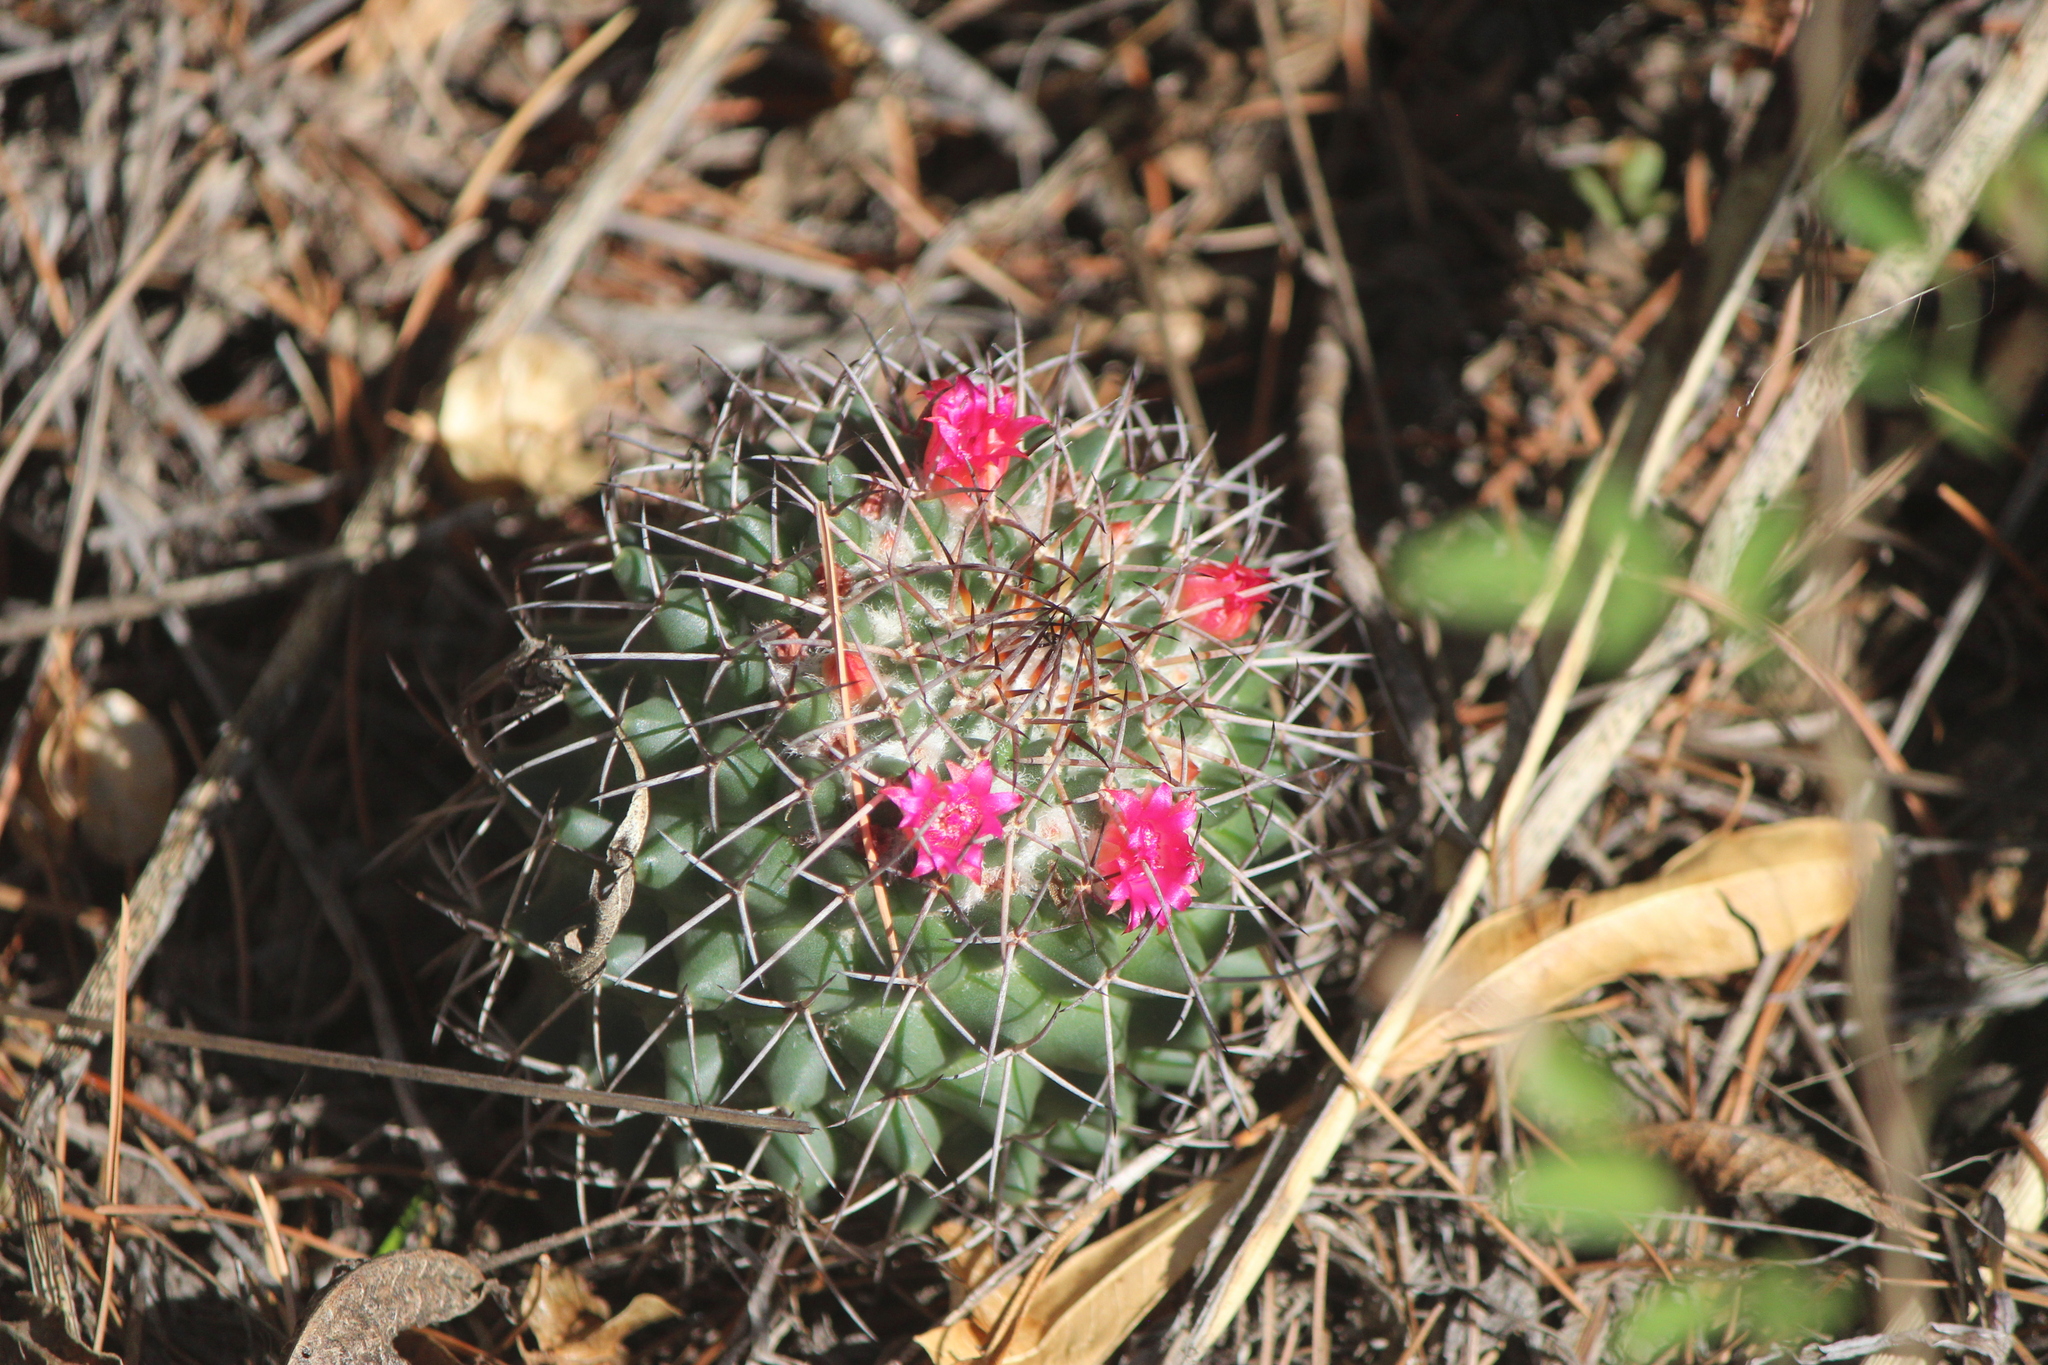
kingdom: Plantae
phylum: Tracheophyta
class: Magnoliopsida
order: Caryophyllales
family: Cactaceae
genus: Mammillaria
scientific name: Mammillaria polythele
